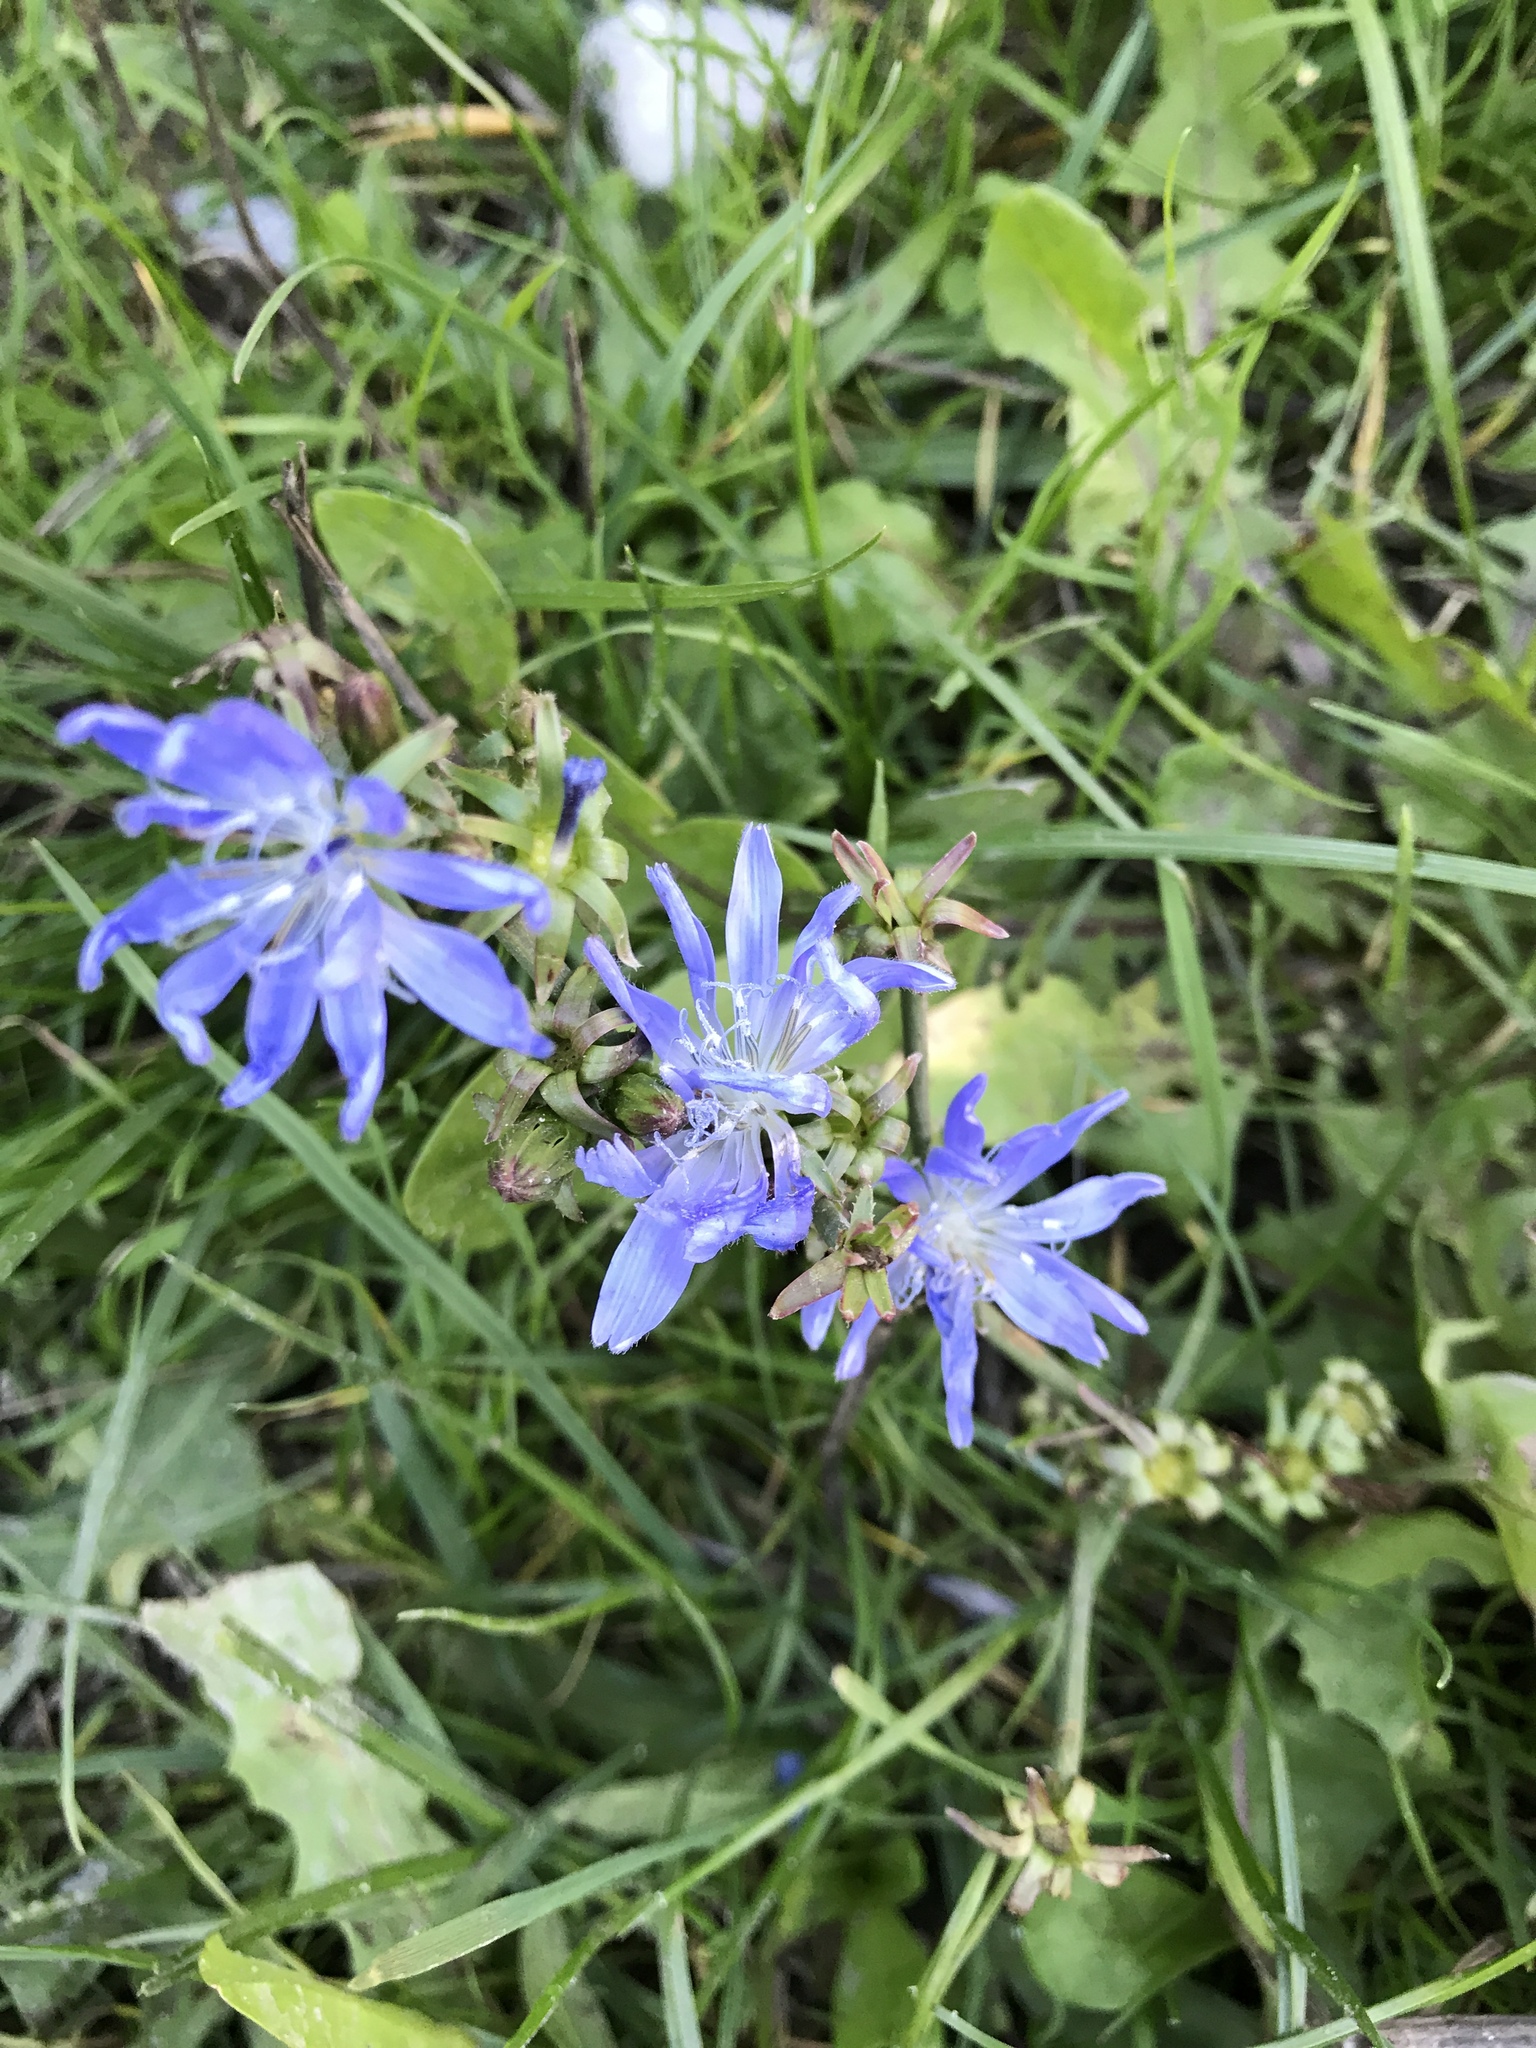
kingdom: Plantae
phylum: Tracheophyta
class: Magnoliopsida
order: Asterales
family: Asteraceae
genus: Cichorium
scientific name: Cichorium intybus
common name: Chicory
